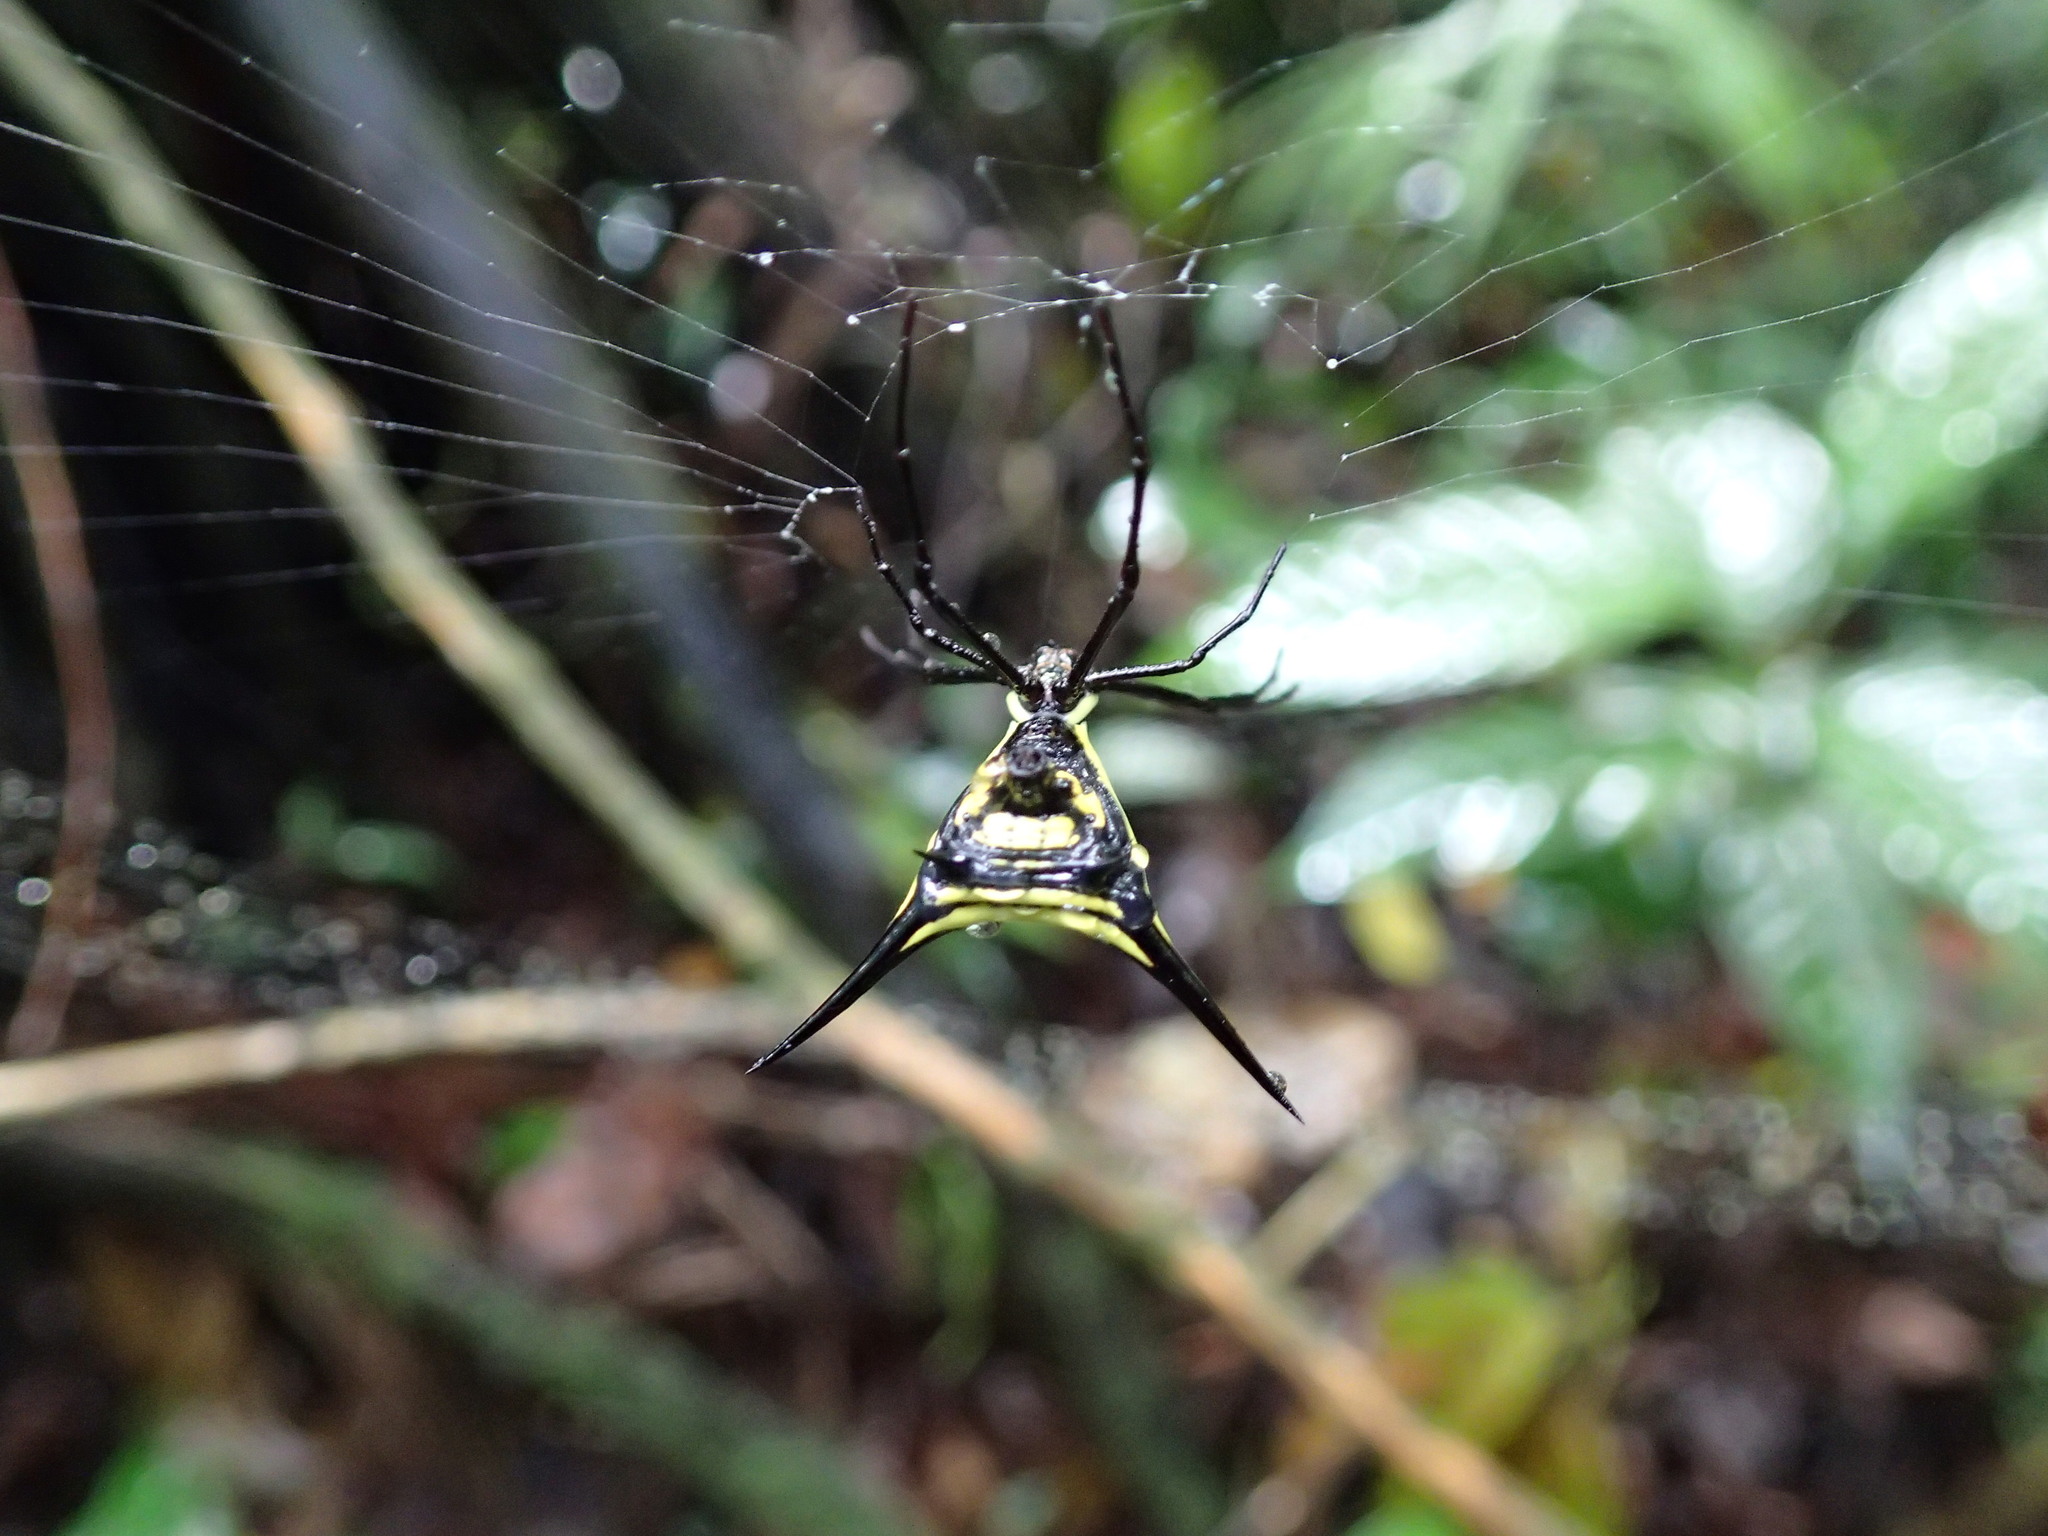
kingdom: Animalia
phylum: Arthropoda
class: Arachnida
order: Araneae
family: Araneidae
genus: Micrathena
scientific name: Micrathena schreibersi
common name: Orb weavers
